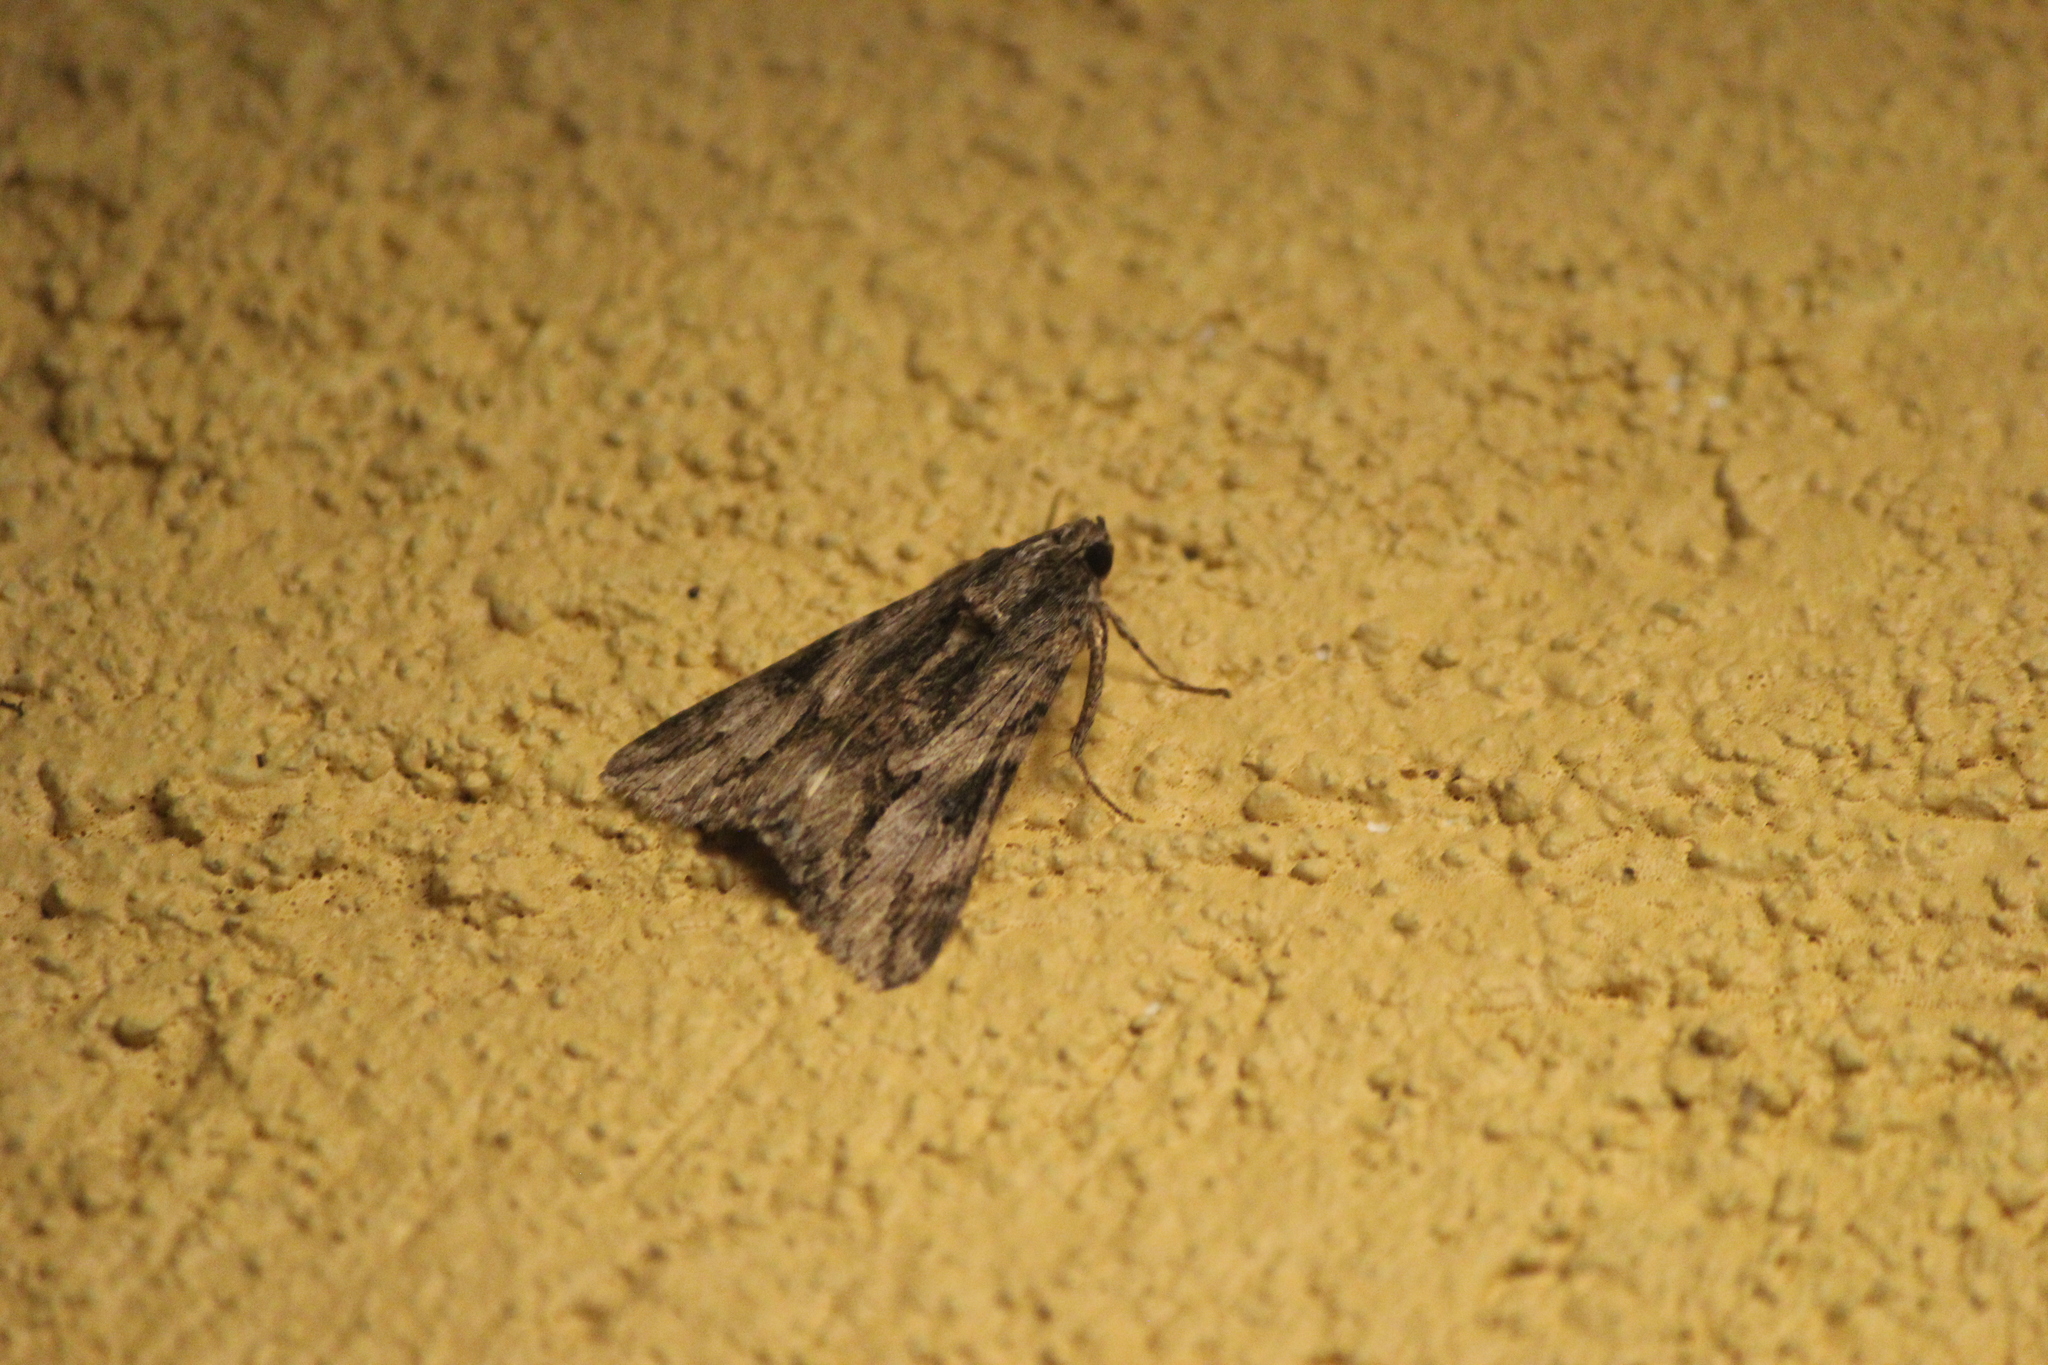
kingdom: Animalia
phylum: Arthropoda
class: Insecta
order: Lepidoptera
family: Erebidae
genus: Melipotis
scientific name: Melipotis jucunda
